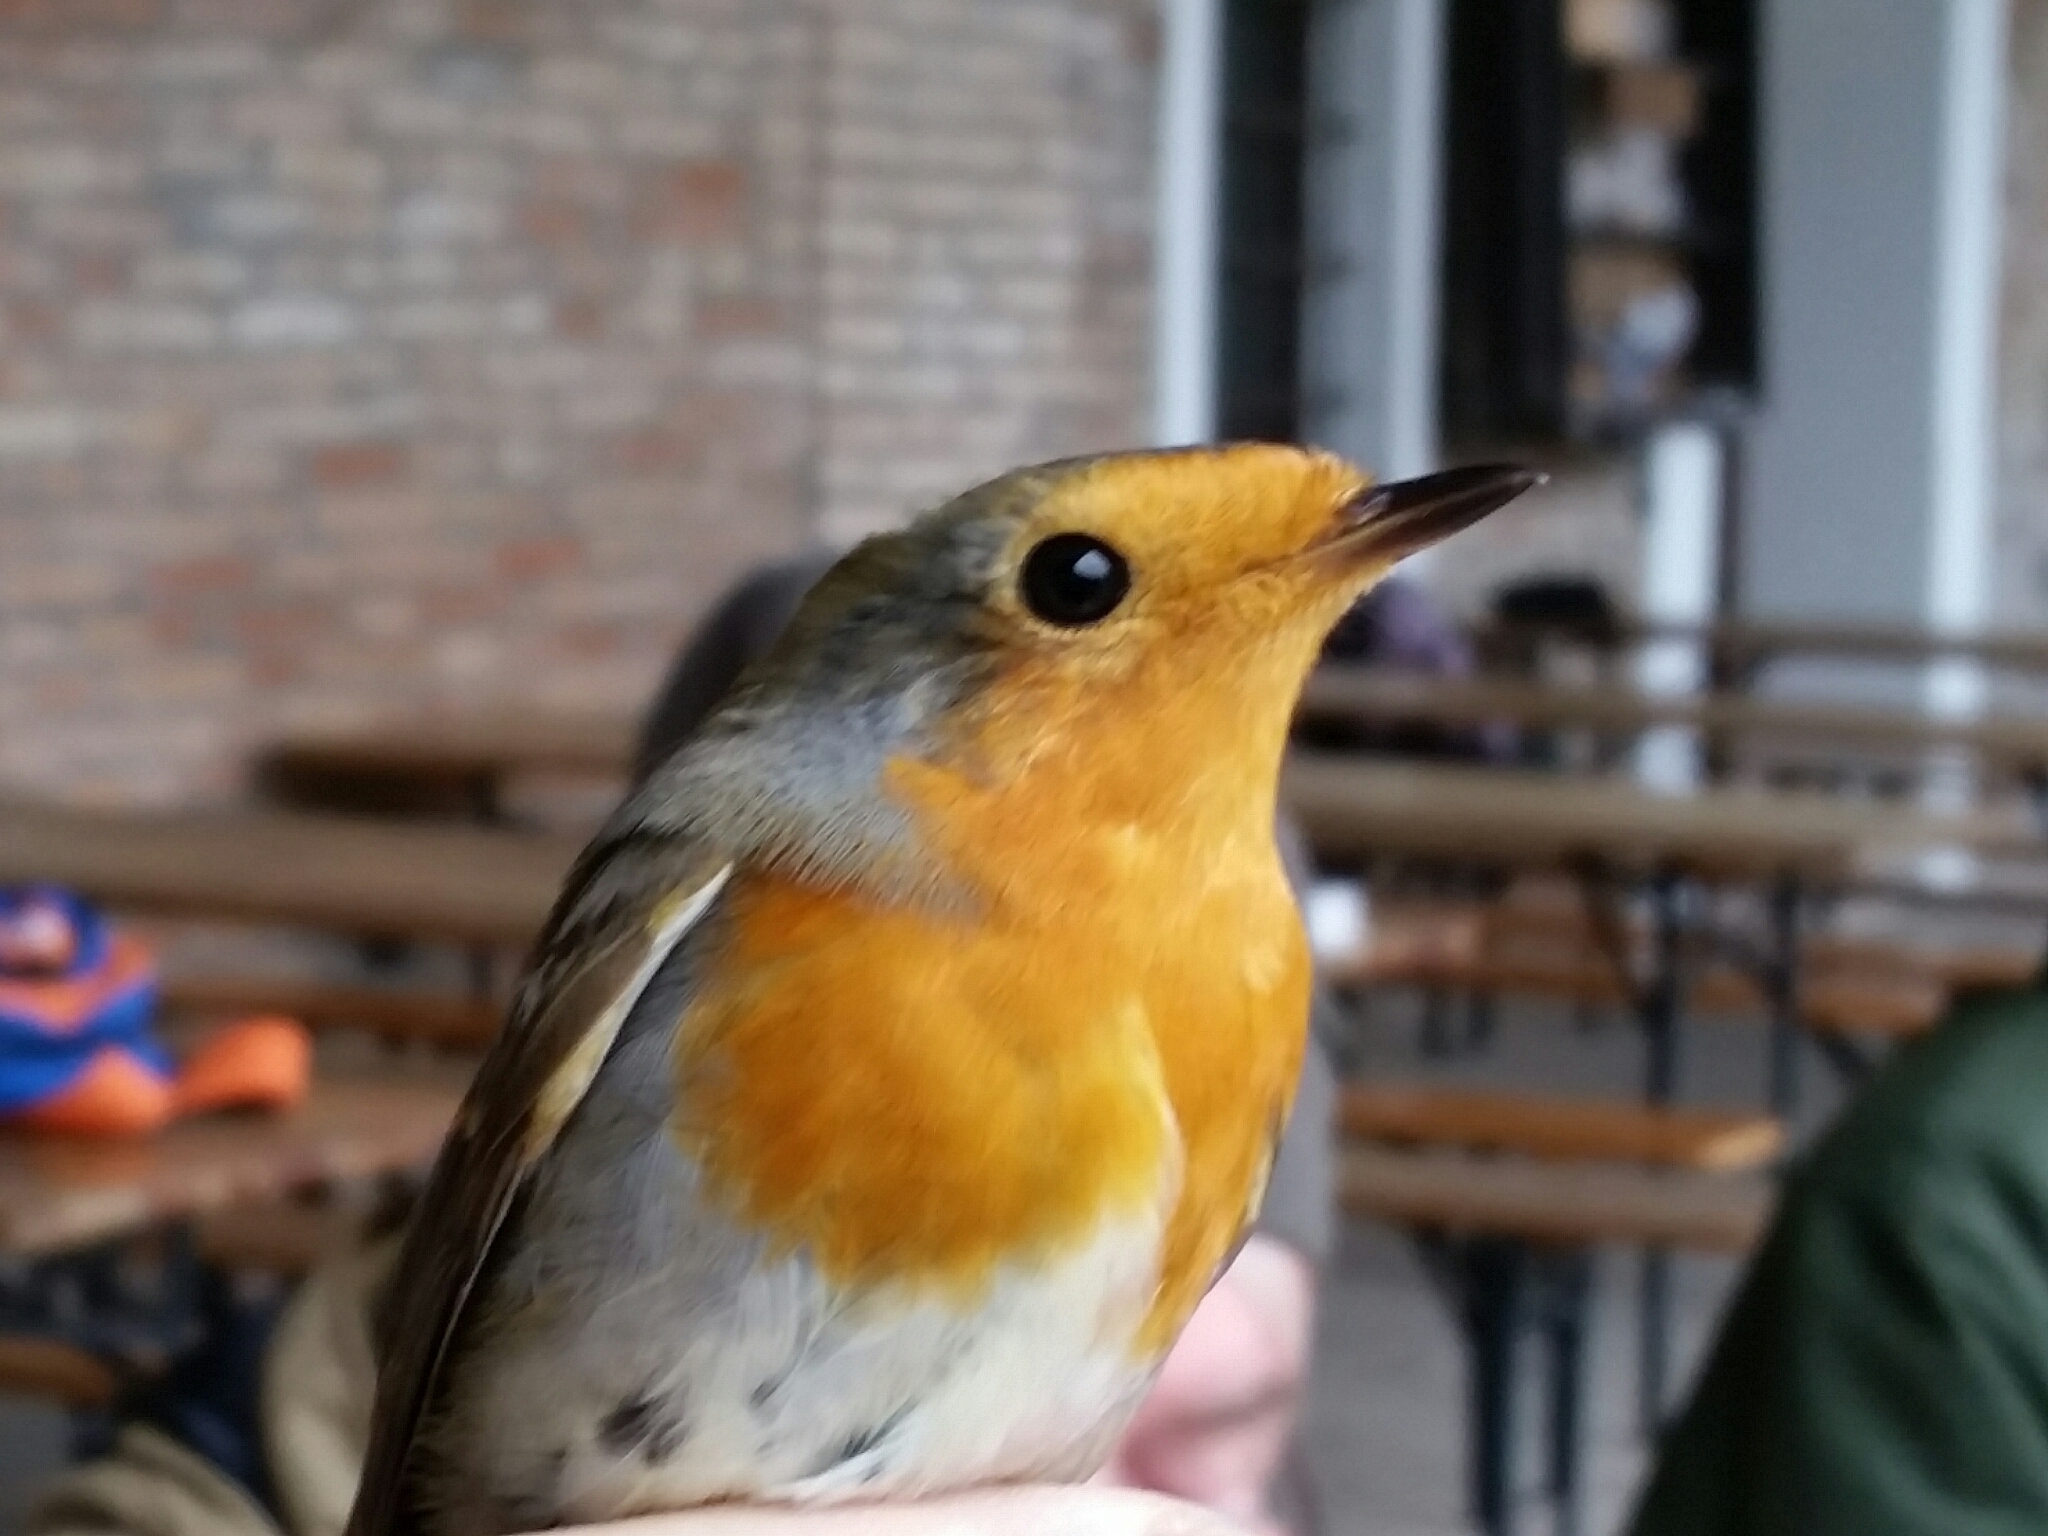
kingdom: Animalia
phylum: Chordata
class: Aves
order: Passeriformes
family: Muscicapidae
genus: Erithacus
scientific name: Erithacus rubecula
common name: European robin
